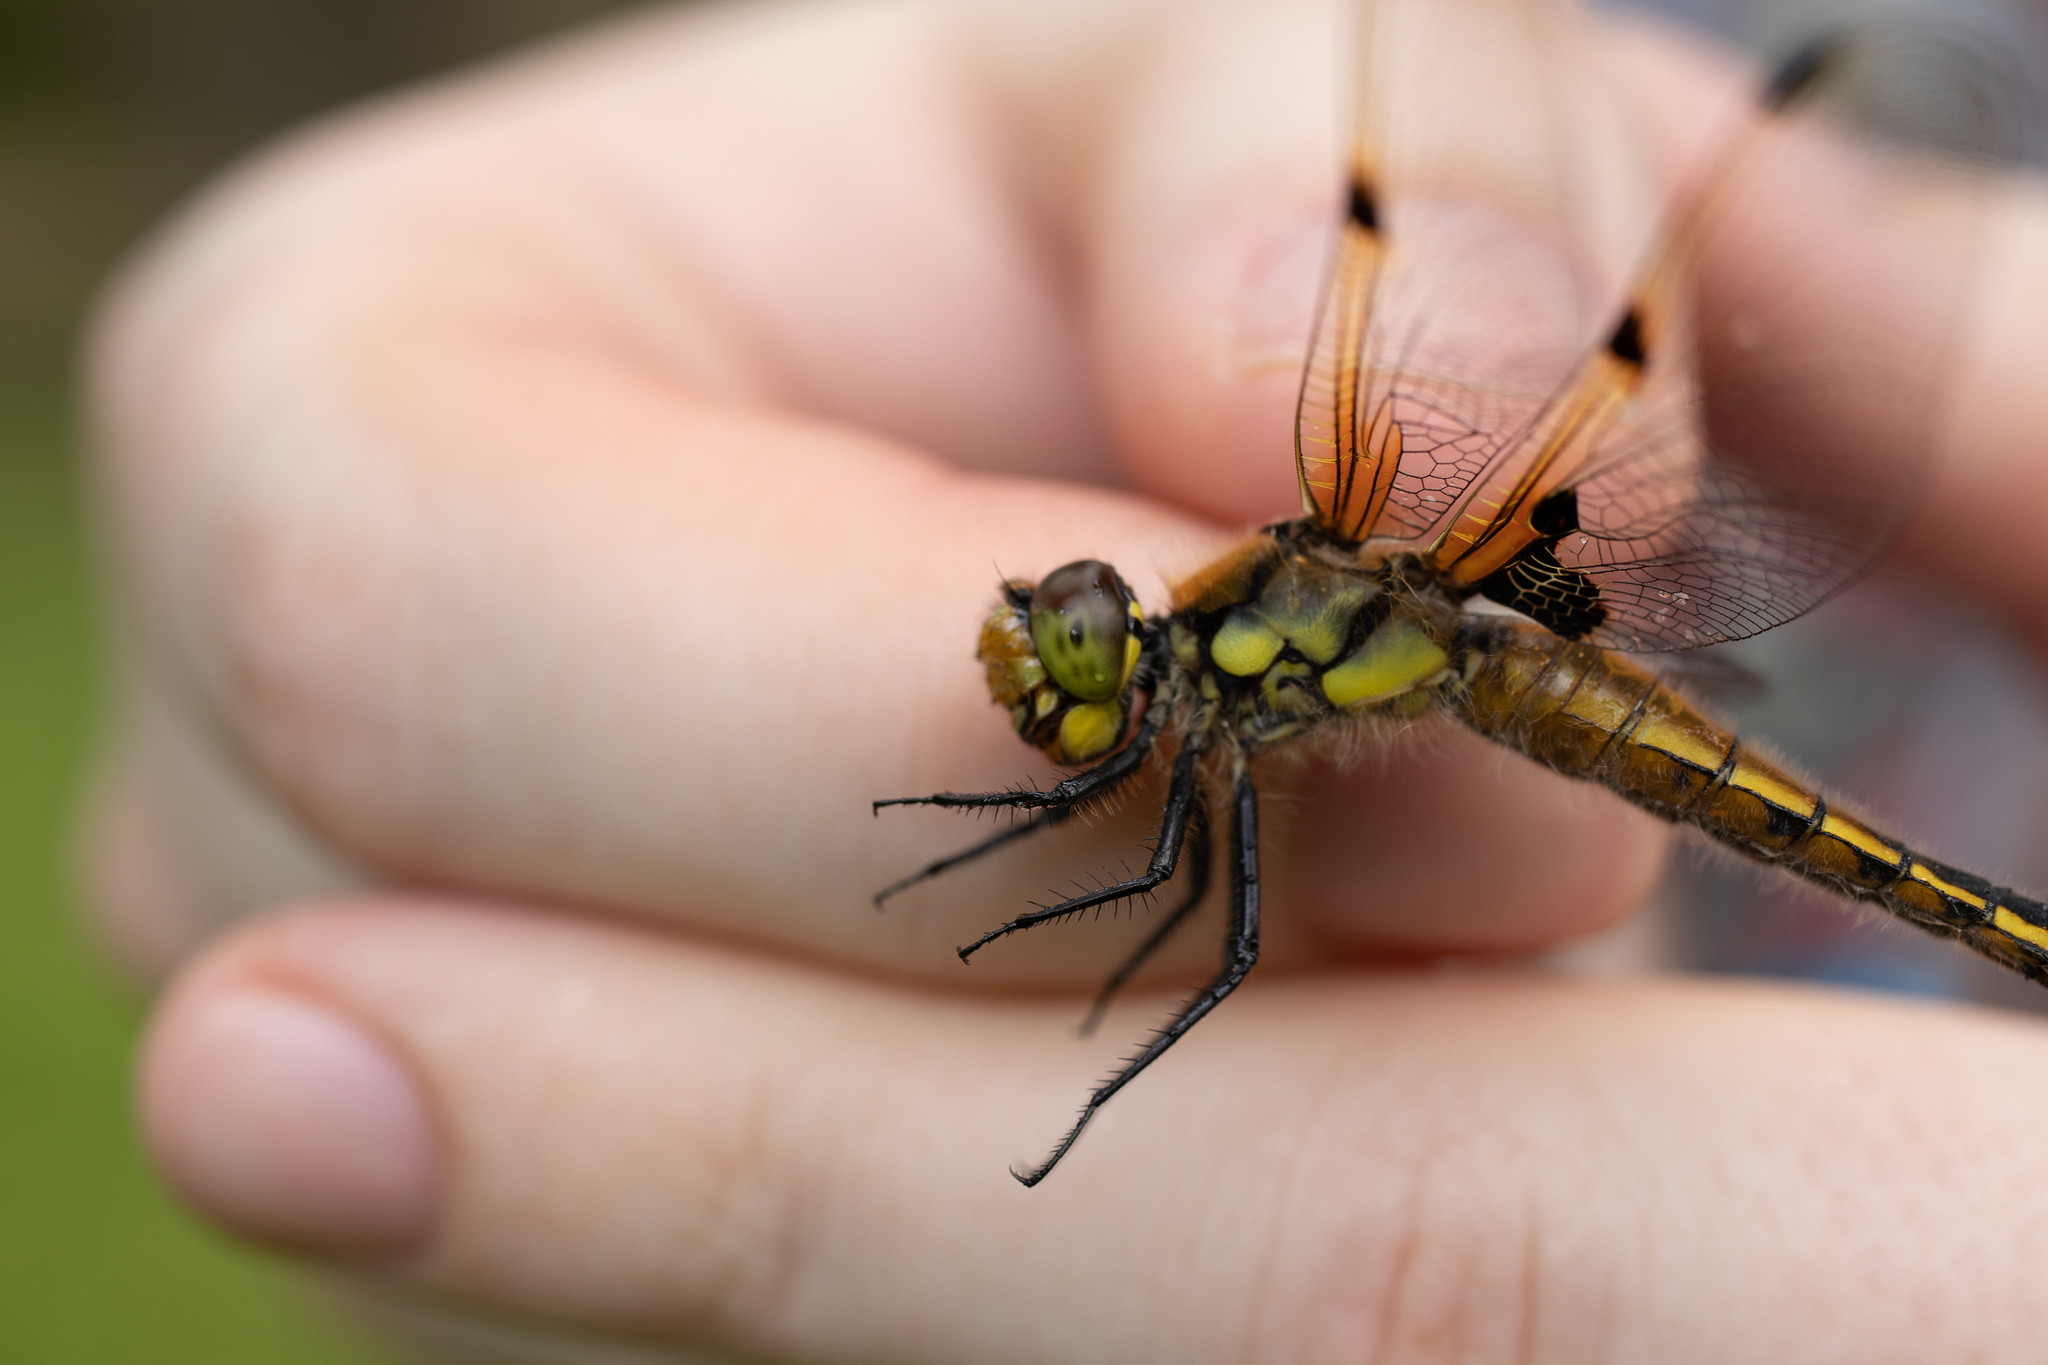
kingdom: Animalia
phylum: Arthropoda
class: Insecta
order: Odonata
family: Libellulidae
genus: Libellula
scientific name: Libellula quadrimaculata
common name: Four-spotted chaser
